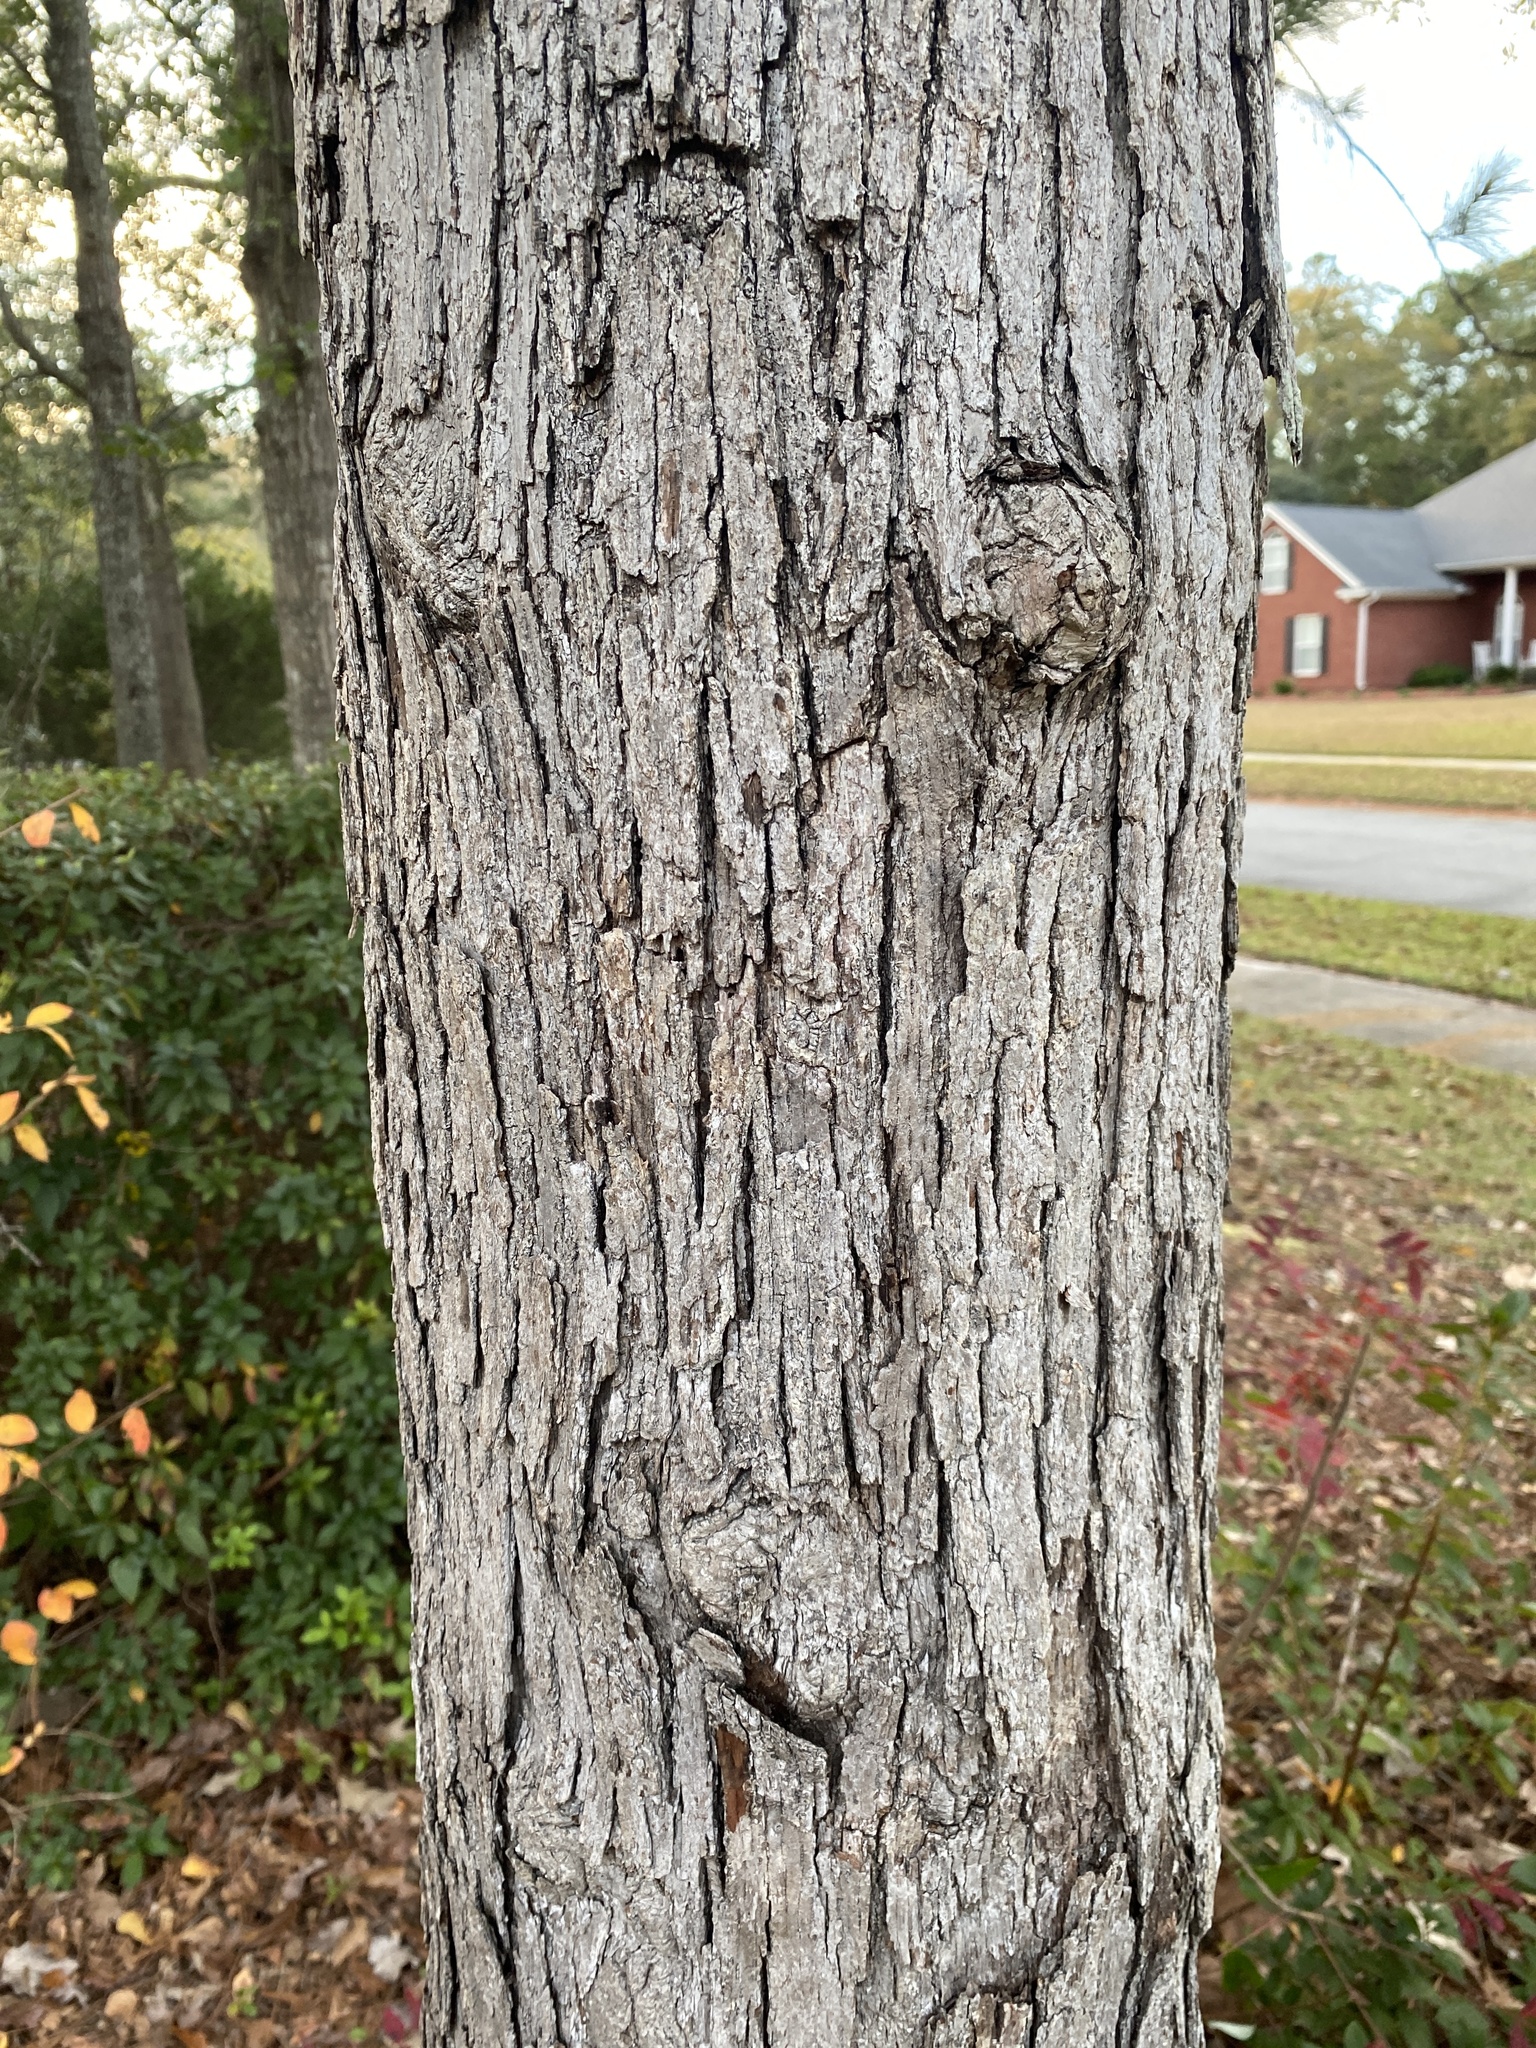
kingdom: Plantae
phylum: Tracheophyta
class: Magnoliopsida
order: Fagales
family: Fagaceae
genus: Quercus
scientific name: Quercus alba
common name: White oak
